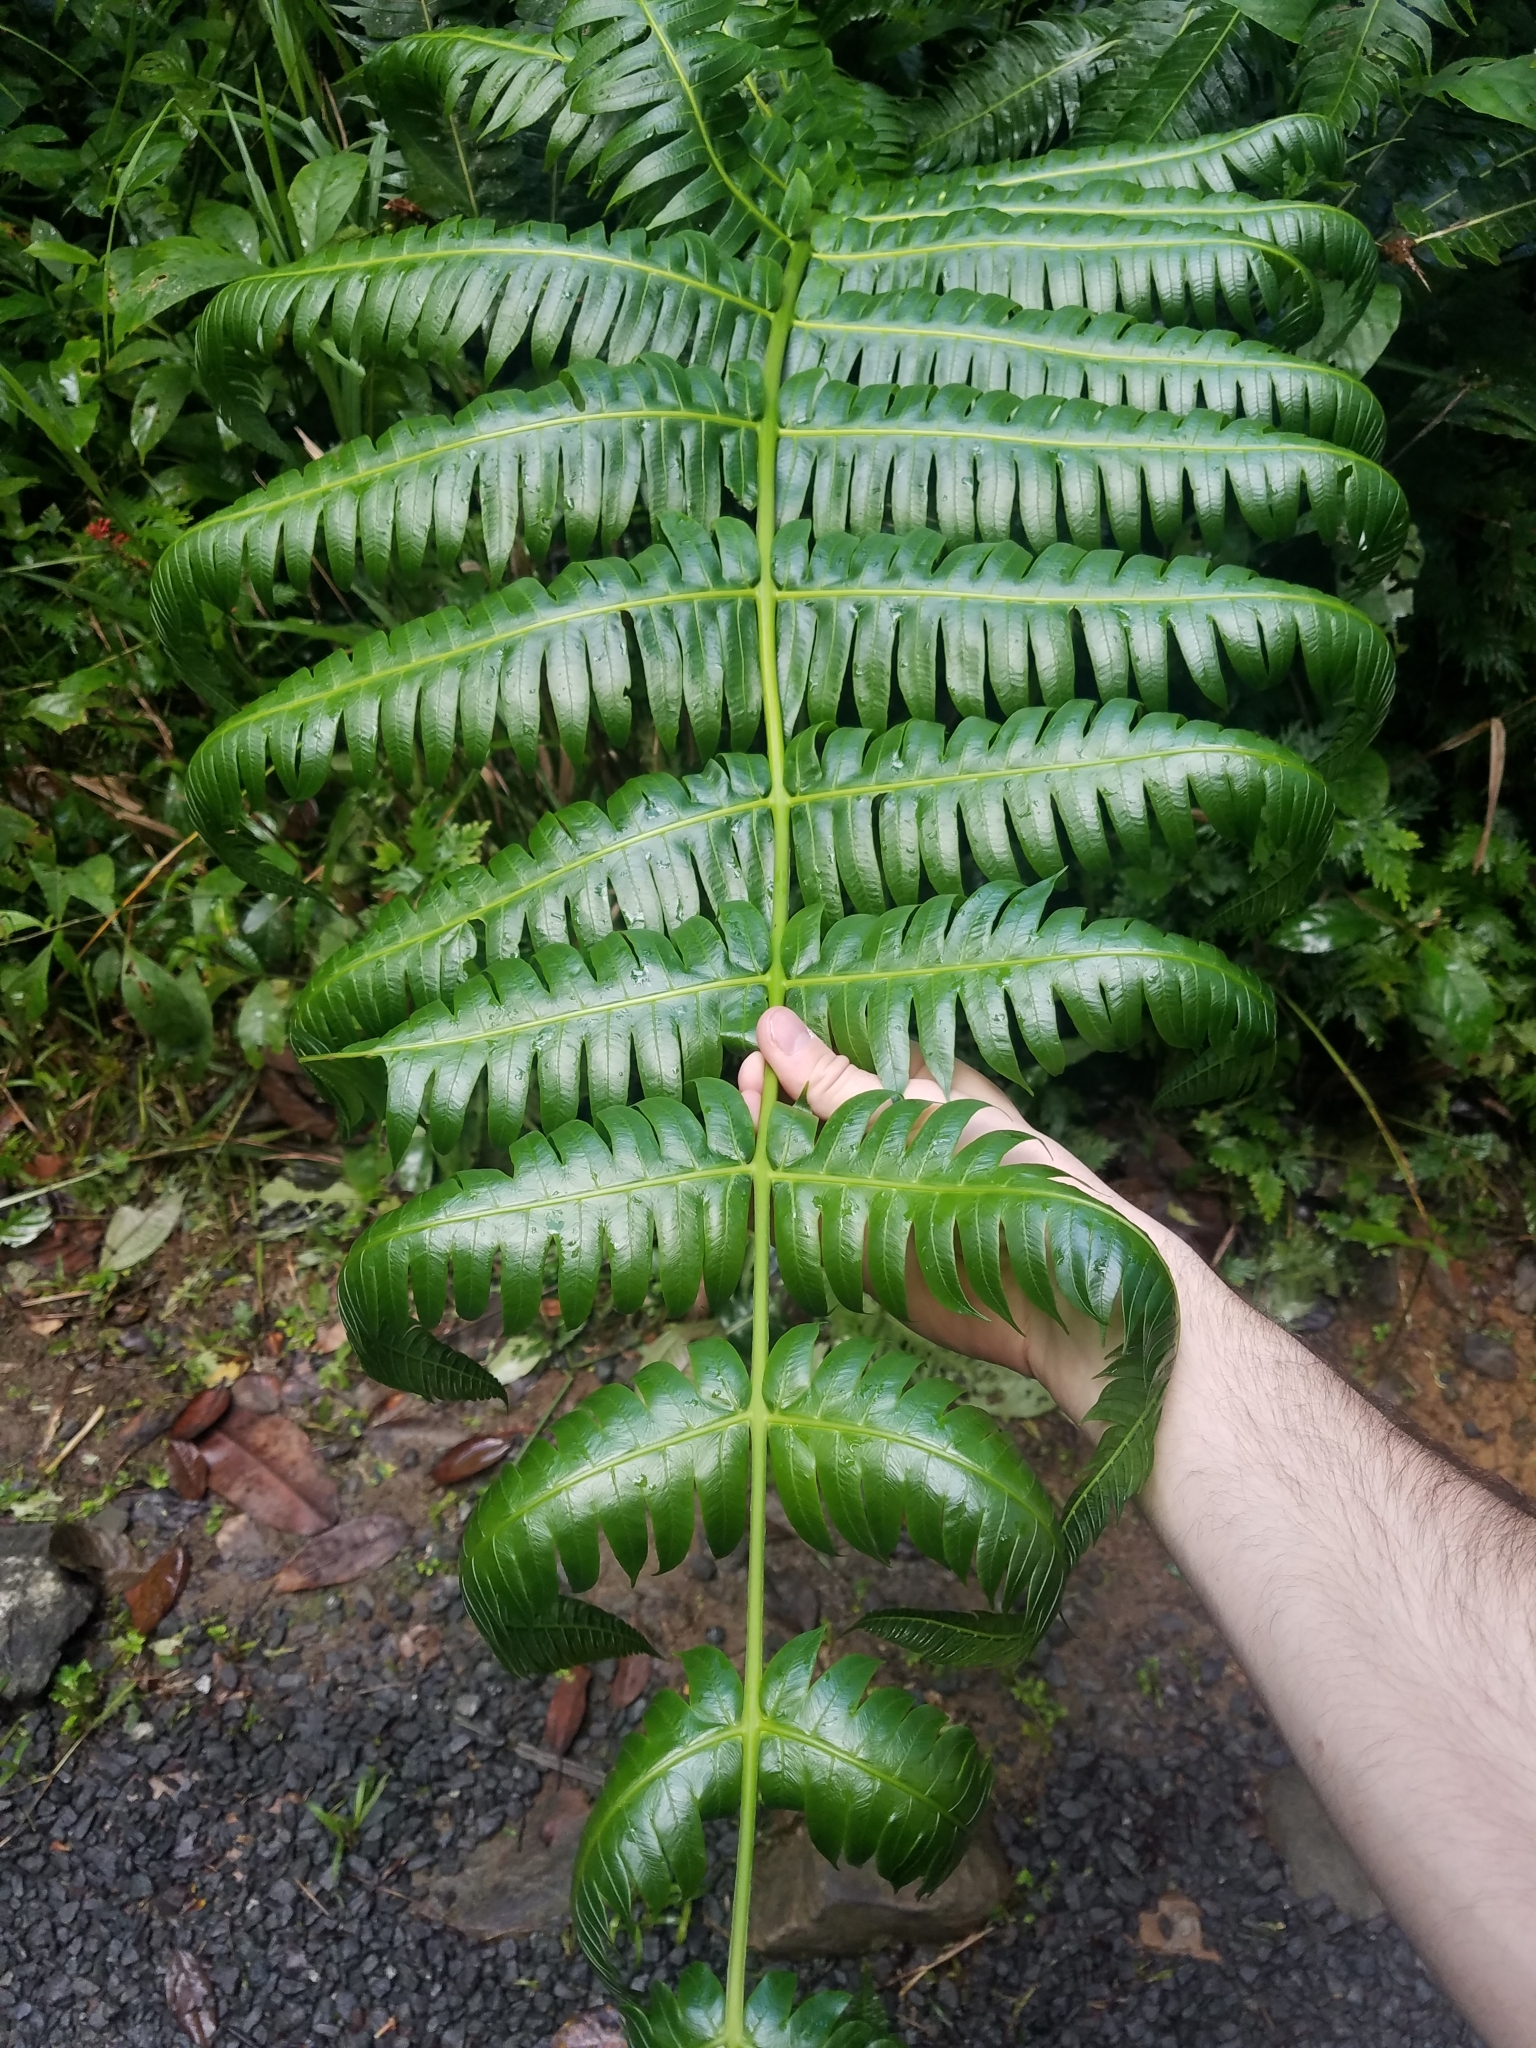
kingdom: Plantae
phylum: Tracheophyta
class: Polypodiopsida
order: Cyatheales
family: Cyatheaceae
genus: Cyathea
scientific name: Cyathea horrida
